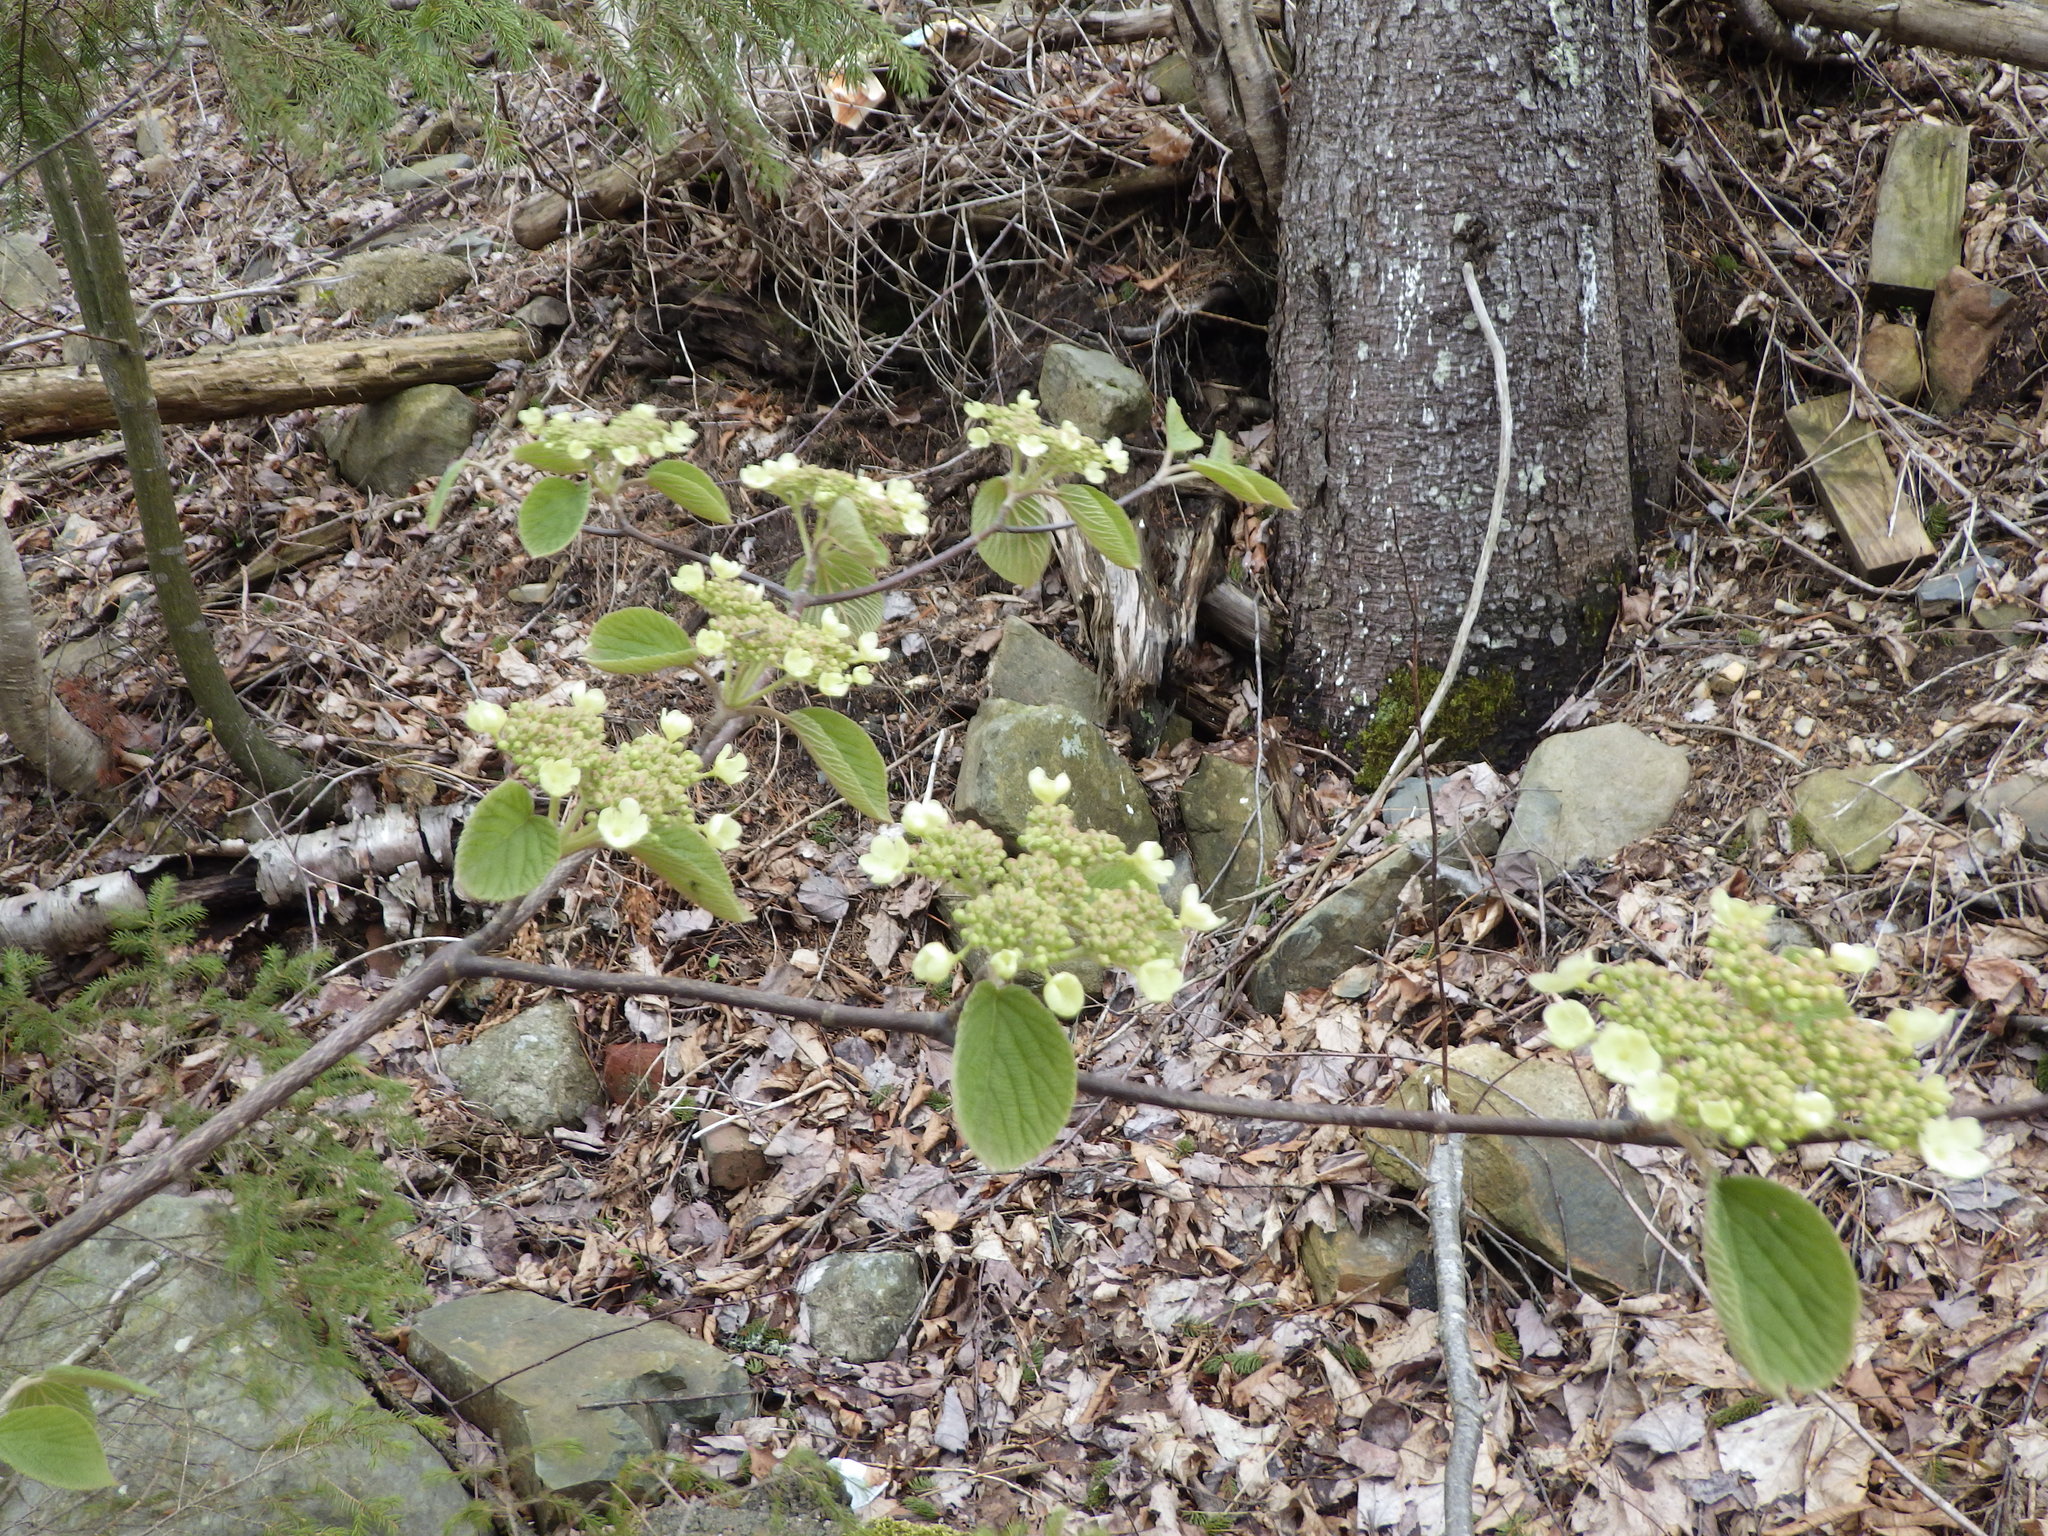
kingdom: Plantae
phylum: Tracheophyta
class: Magnoliopsida
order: Dipsacales
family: Viburnaceae
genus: Viburnum
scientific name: Viburnum lantanoides
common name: Hobblebush
